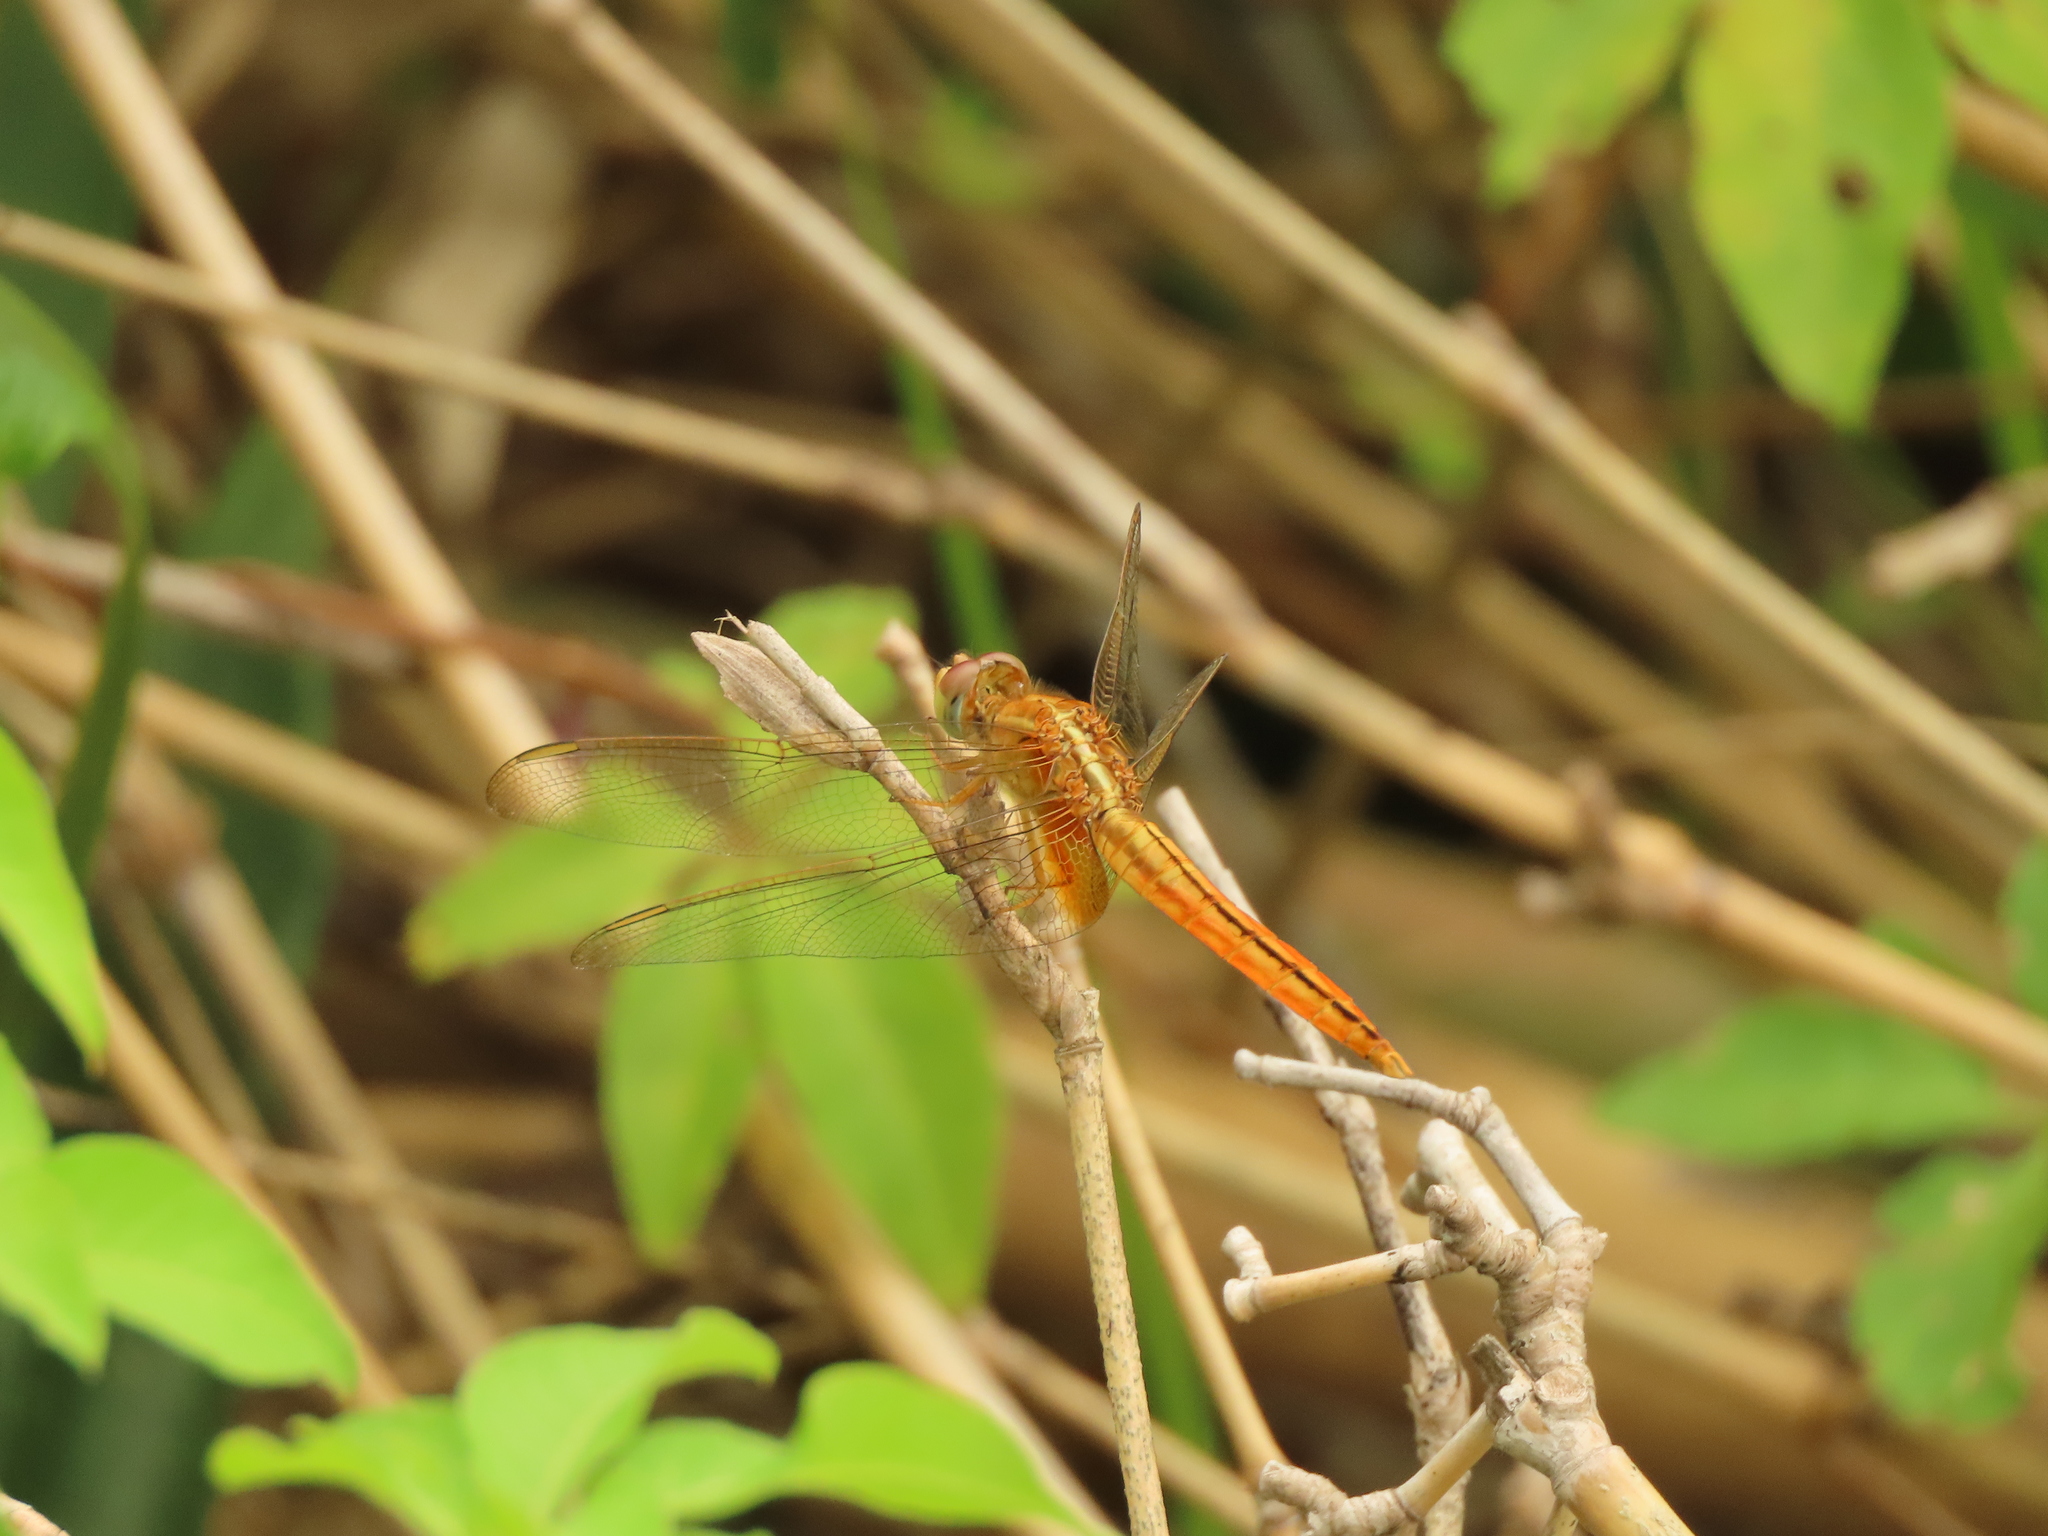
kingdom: Animalia
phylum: Arthropoda
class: Insecta
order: Odonata
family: Libellulidae
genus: Crocothemis
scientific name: Crocothemis servilia
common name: Scarlet skimmer
